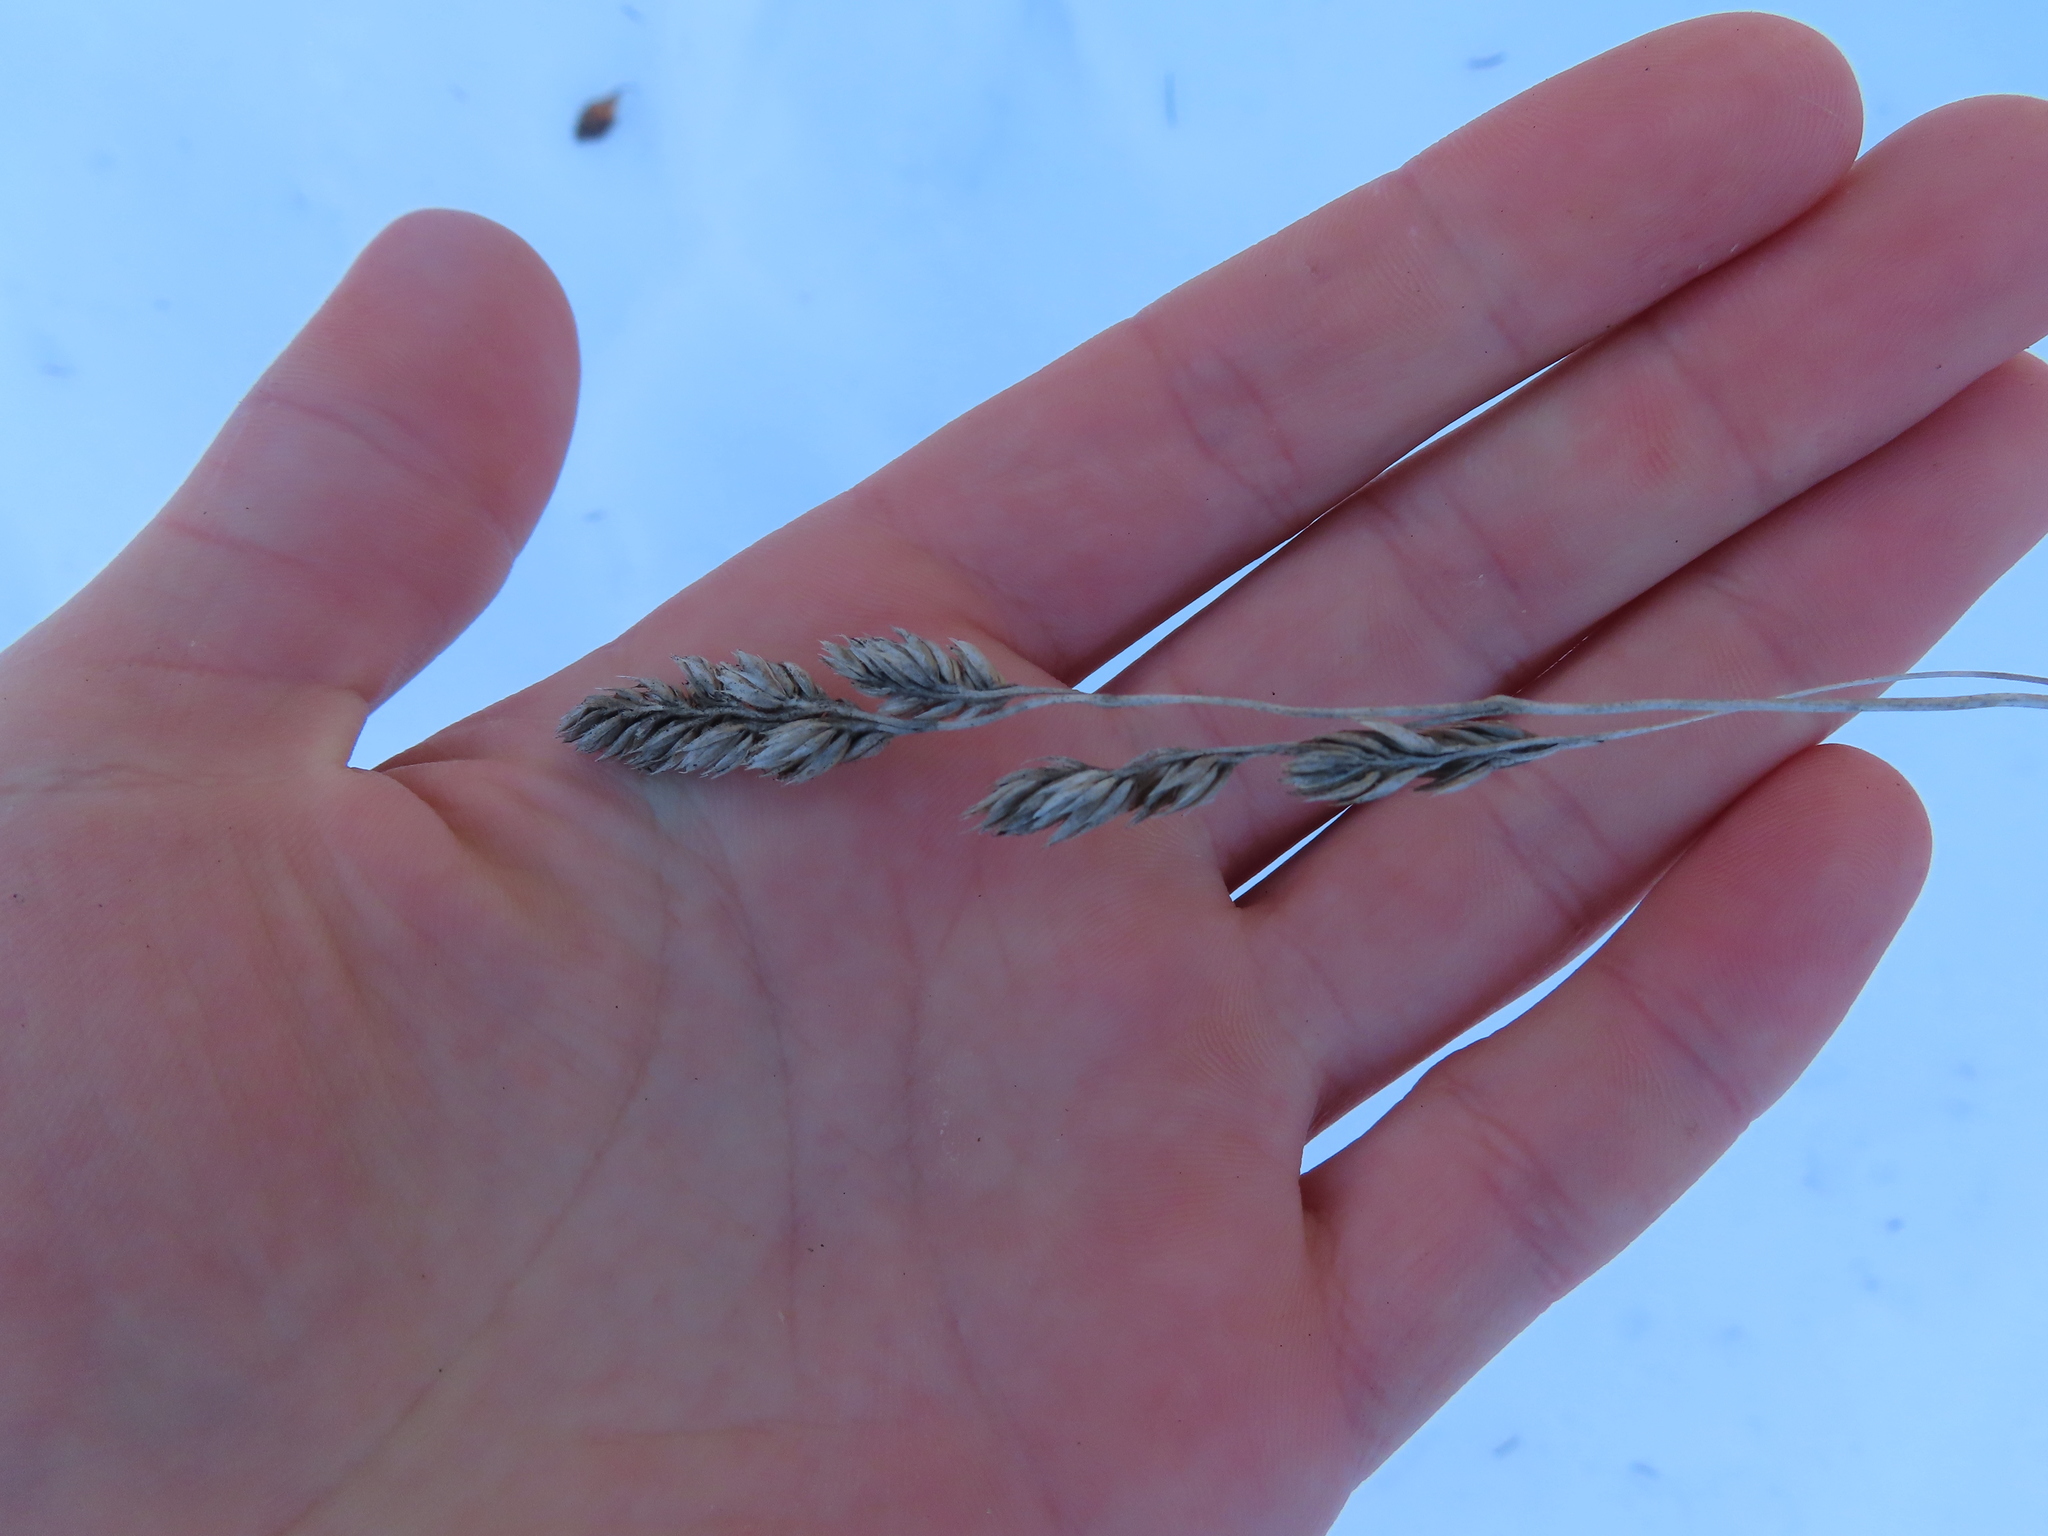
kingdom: Plantae
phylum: Tracheophyta
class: Liliopsida
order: Poales
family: Poaceae
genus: Dactylis
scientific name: Dactylis glomerata
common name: Orchardgrass
